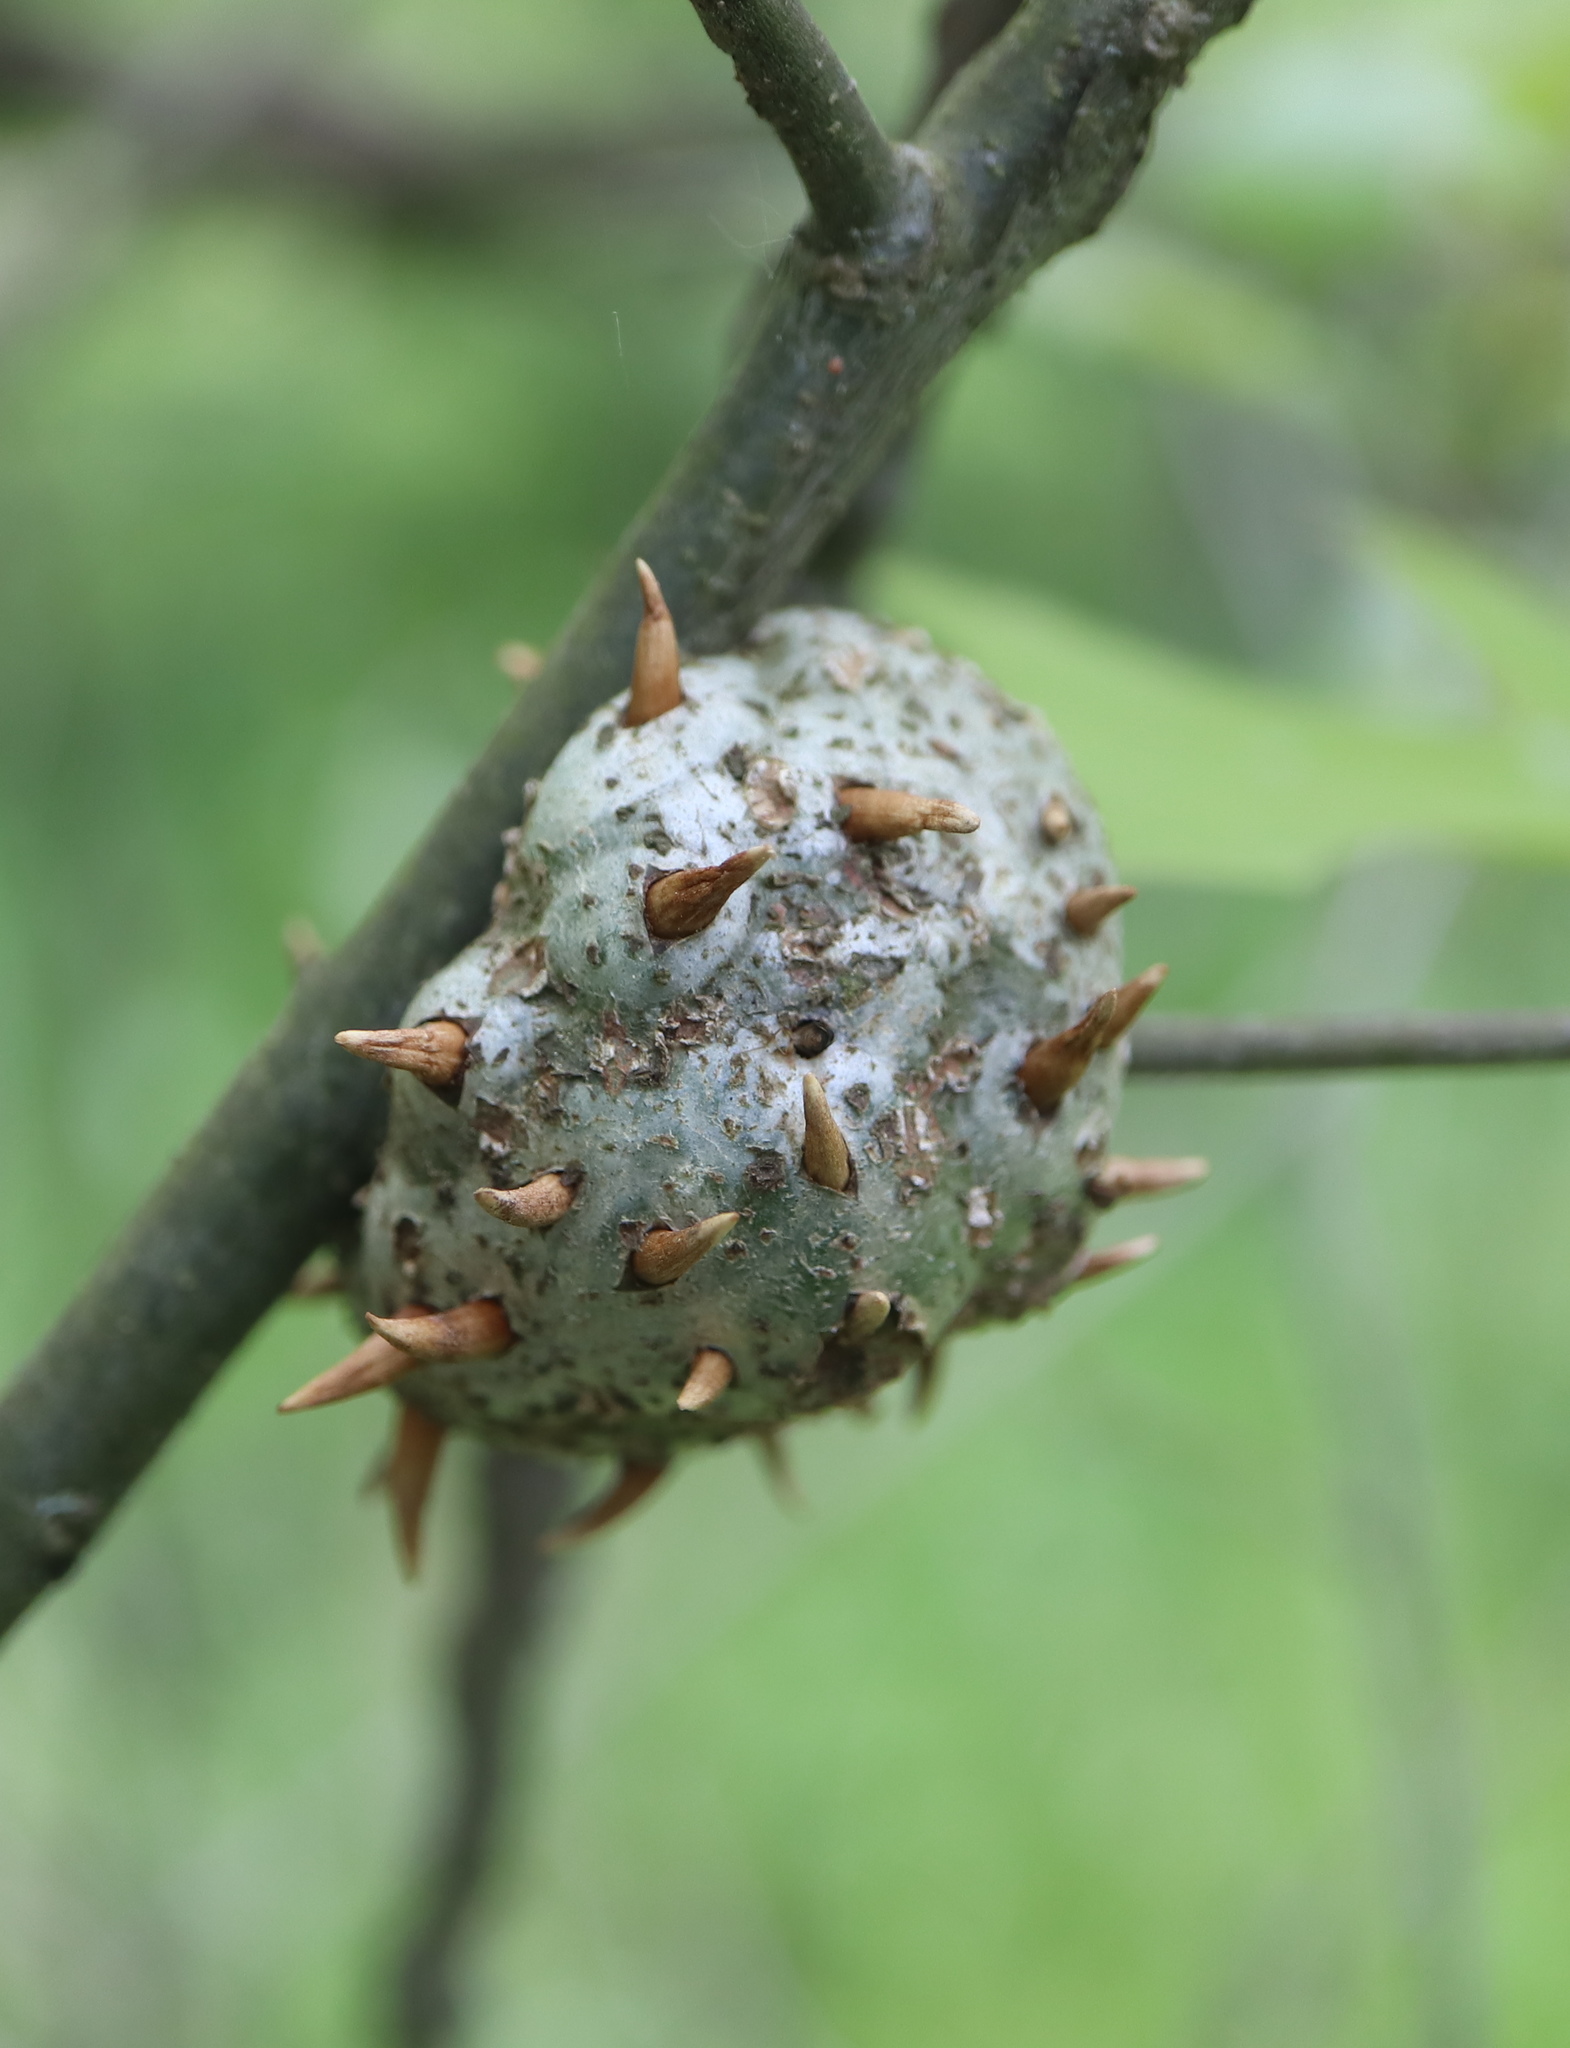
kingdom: Animalia
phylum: Arthropoda
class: Insecta
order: Hymenoptera
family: Cynipidae
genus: Callirhytis
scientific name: Callirhytis
